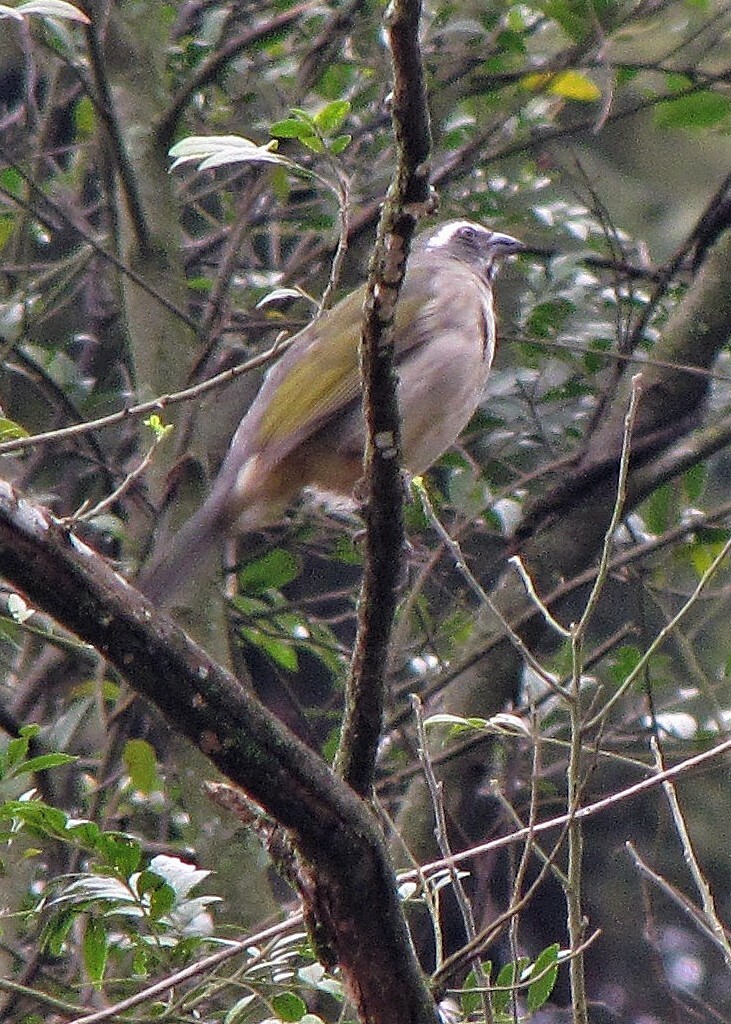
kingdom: Animalia
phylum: Chordata
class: Aves
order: Passeriformes
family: Thraupidae
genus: Saltator
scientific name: Saltator similis
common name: Green-winged saltator
